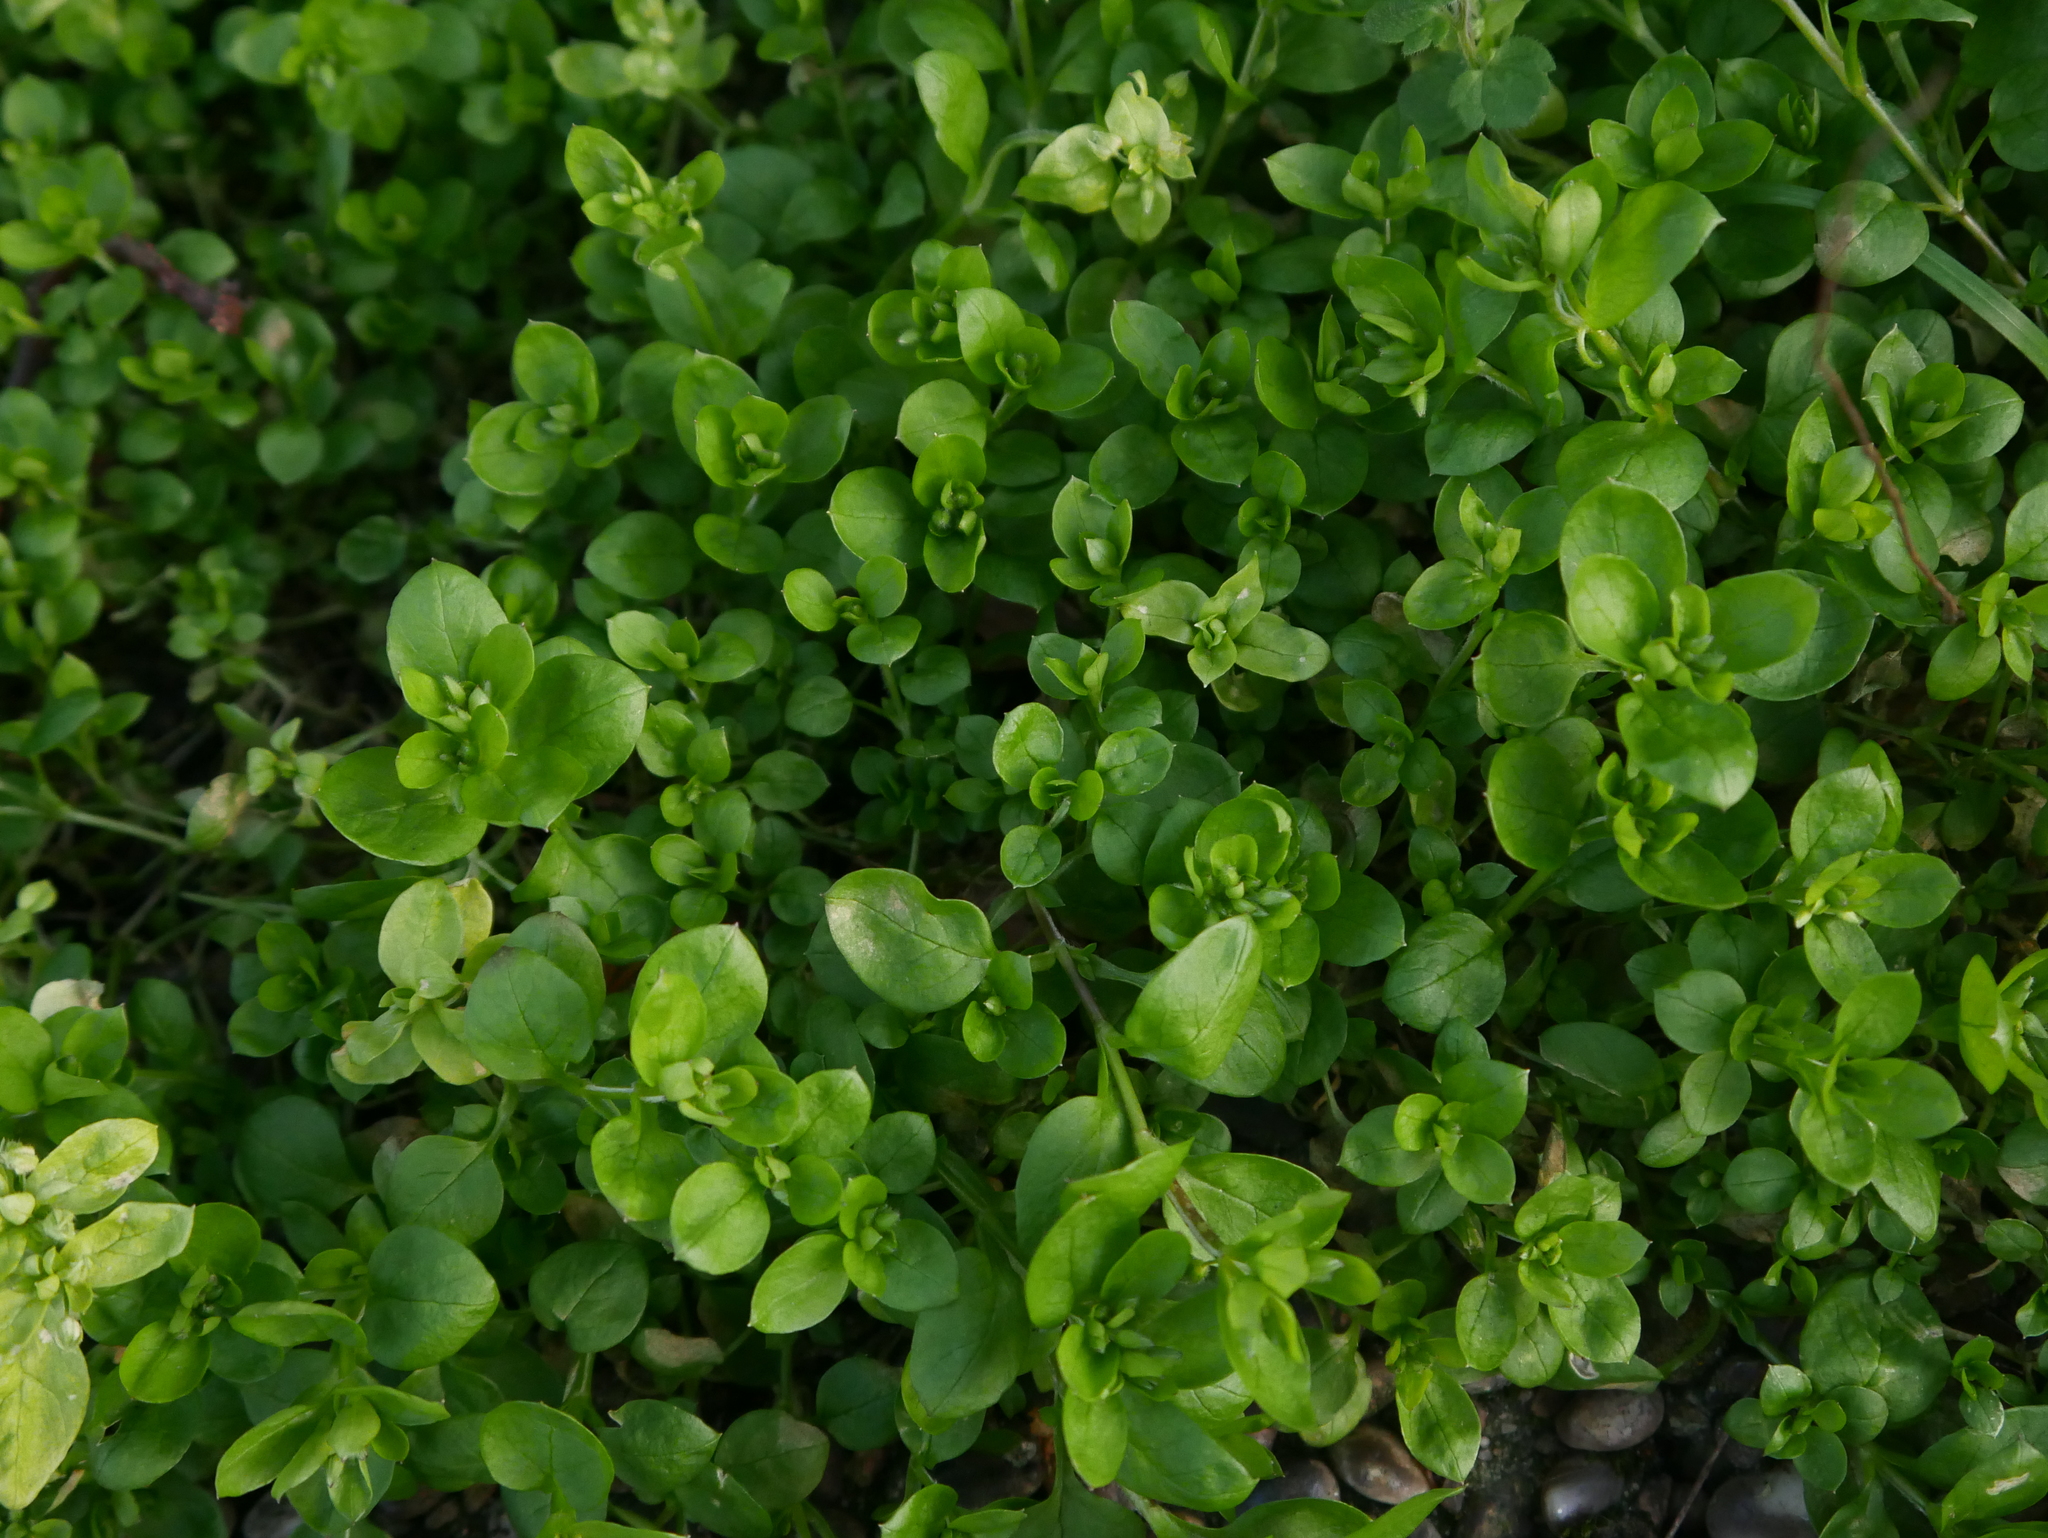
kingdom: Plantae
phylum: Tracheophyta
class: Magnoliopsida
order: Caryophyllales
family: Caryophyllaceae
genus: Stellaria
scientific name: Stellaria media
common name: Common chickweed
